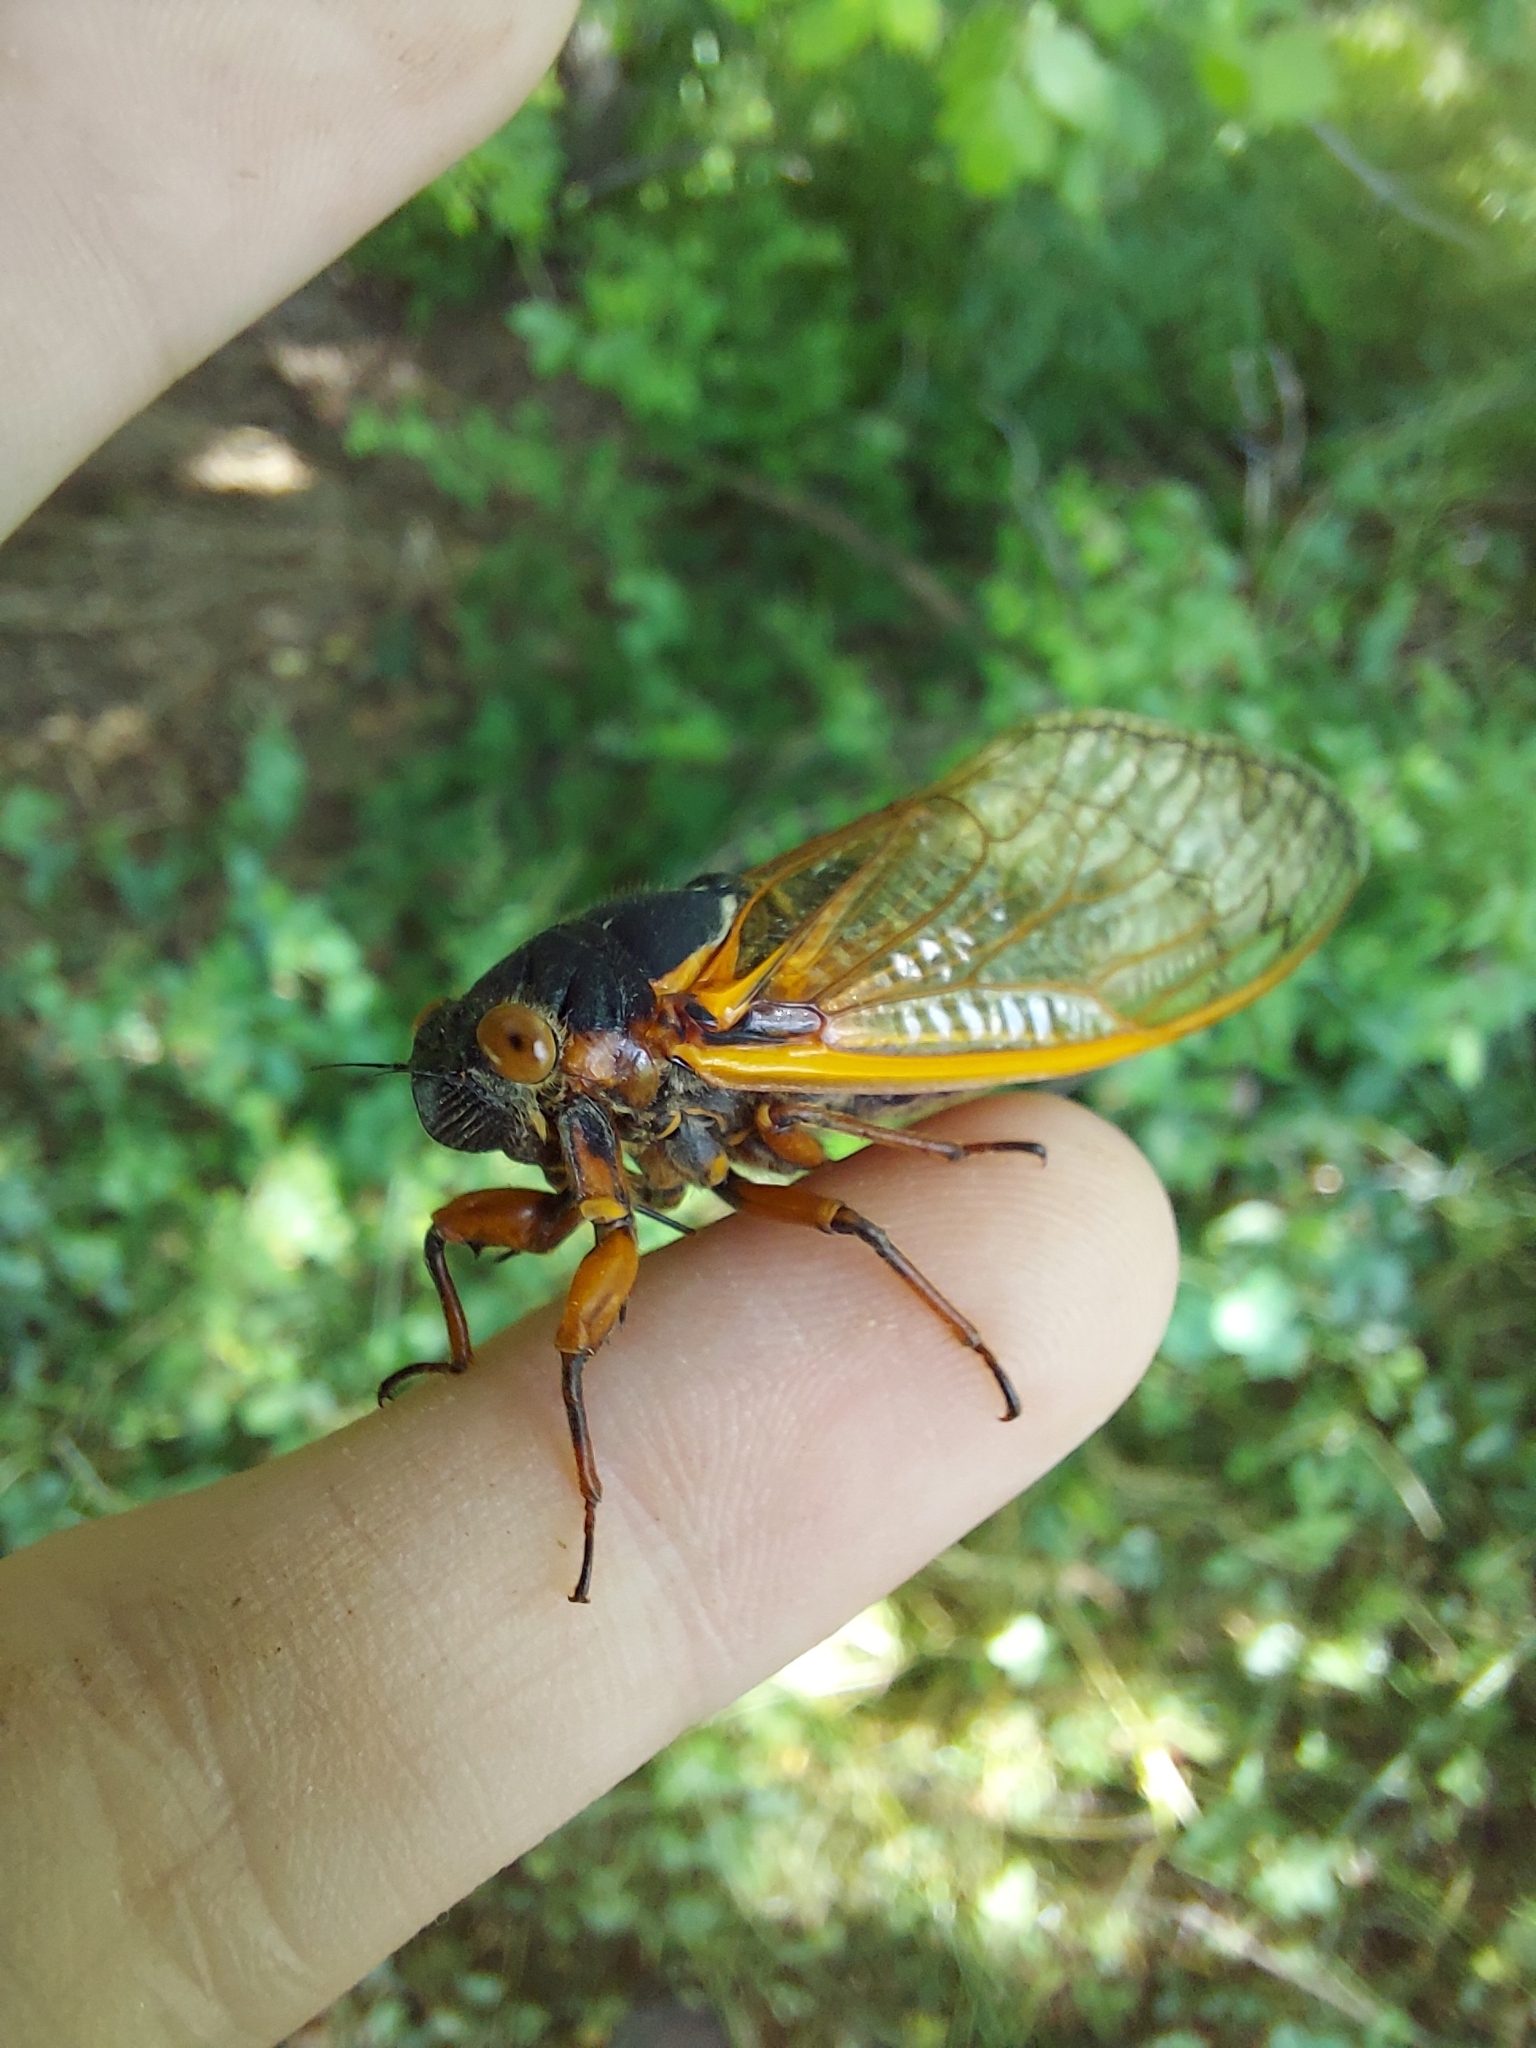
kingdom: Animalia
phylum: Arthropoda
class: Insecta
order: Hemiptera
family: Cicadidae
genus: Magicicada
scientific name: Magicicada septendecim
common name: Periodical cicada
